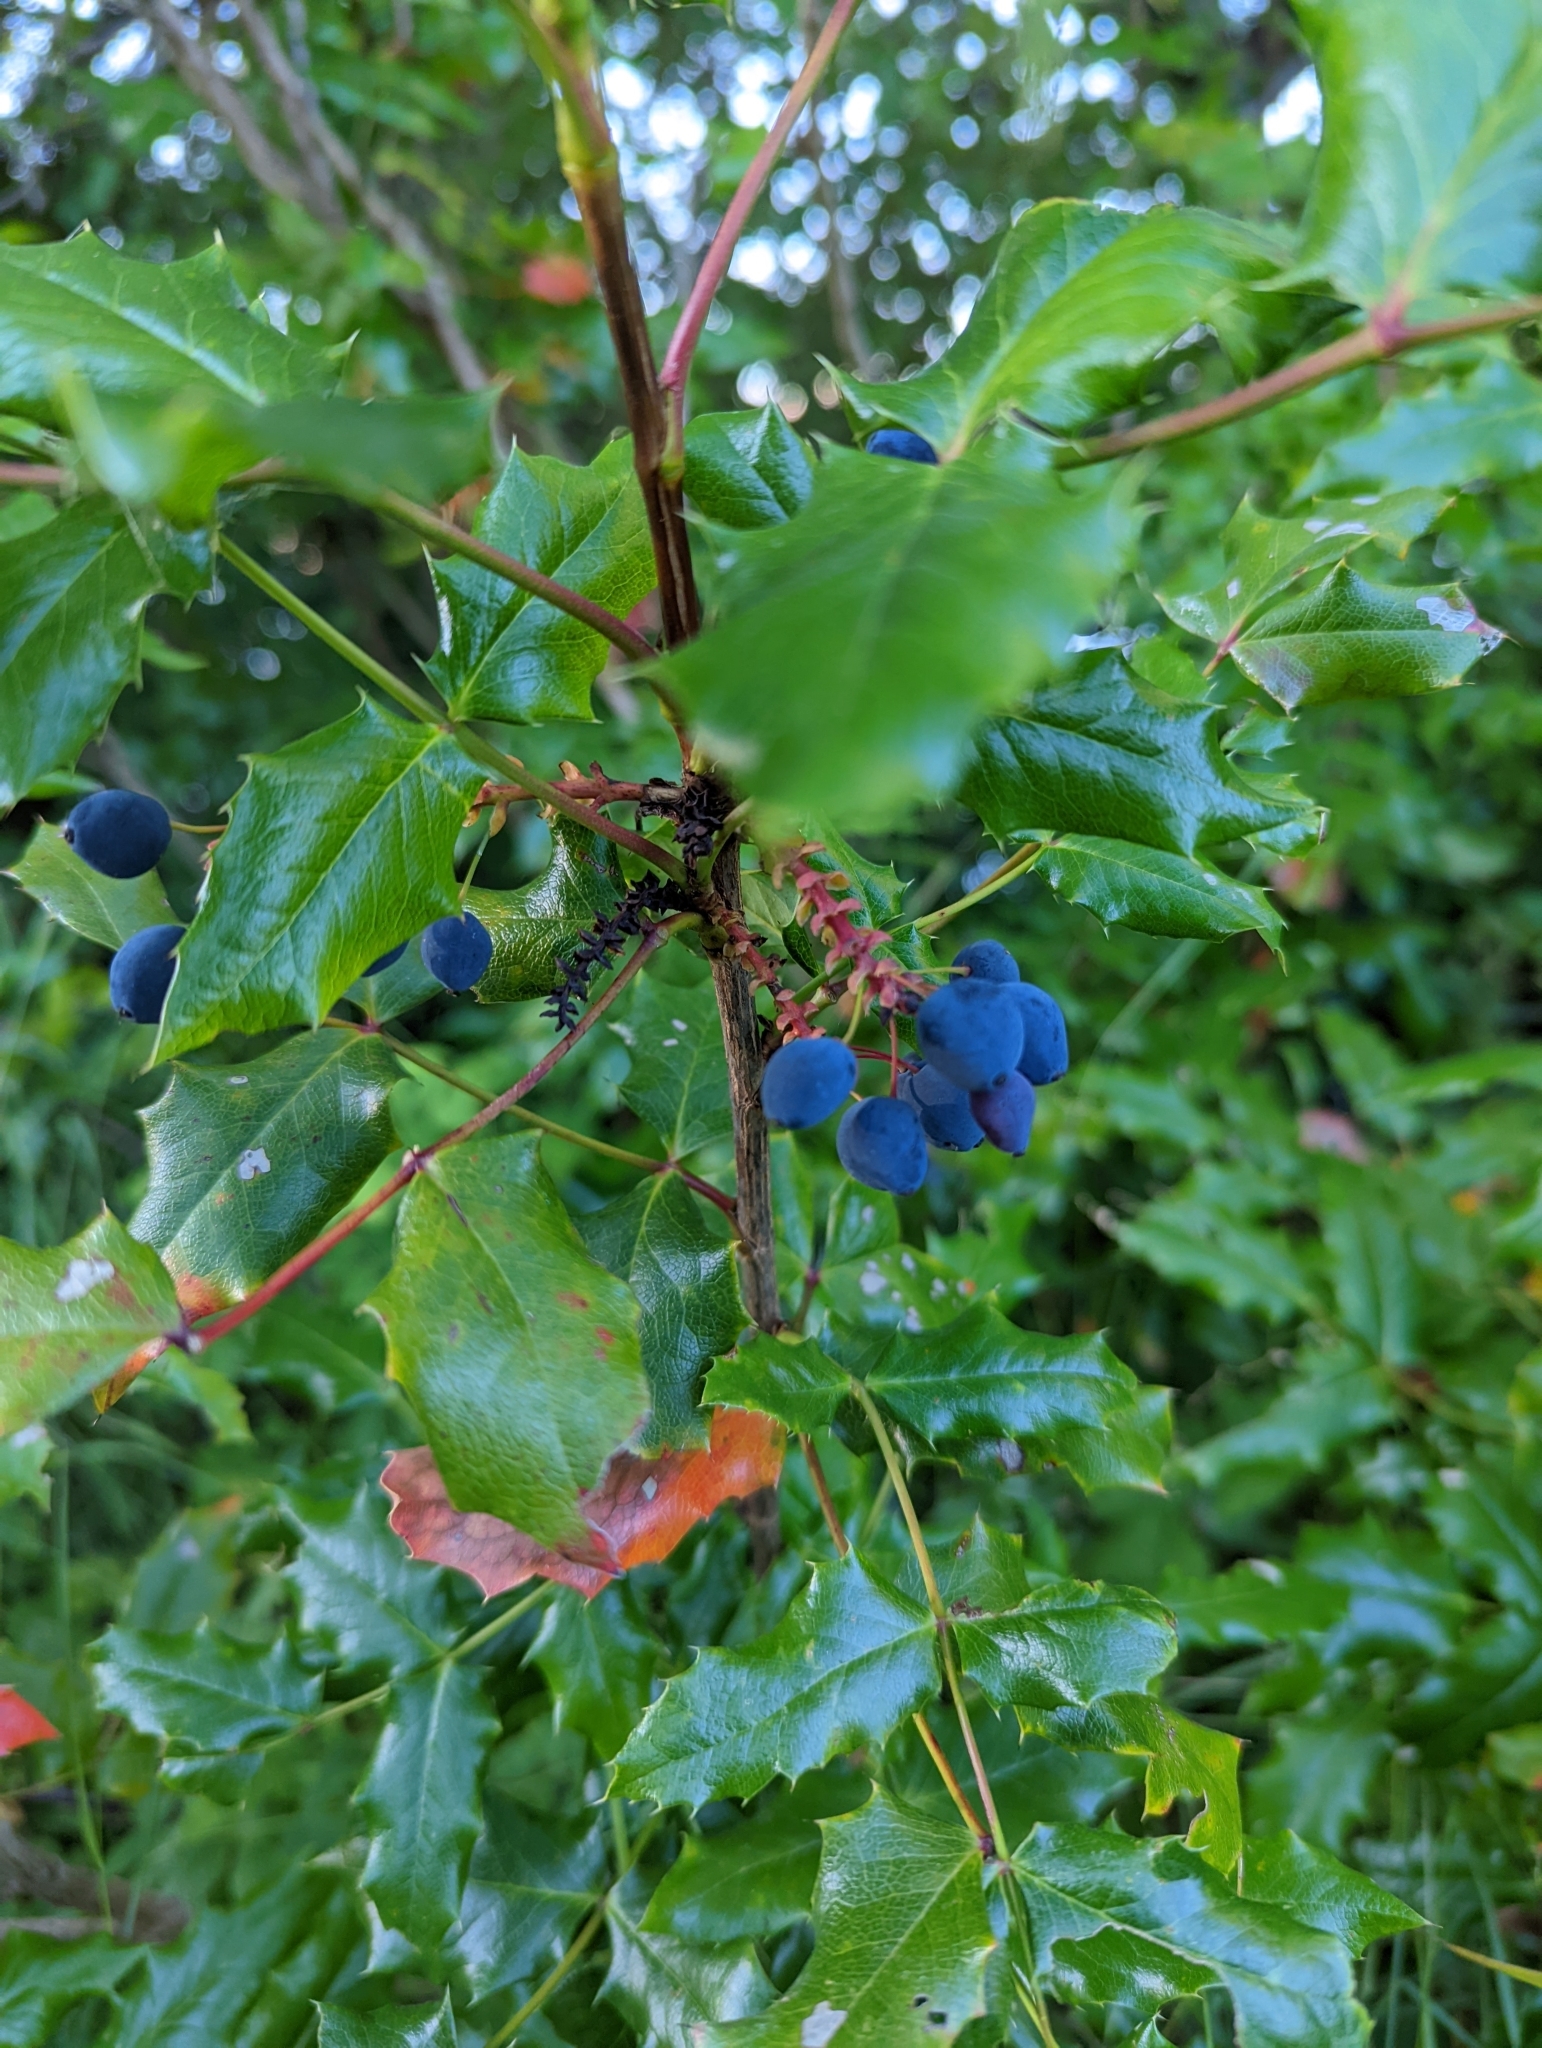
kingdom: Plantae
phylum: Tracheophyta
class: Magnoliopsida
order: Ranunculales
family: Berberidaceae
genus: Mahonia
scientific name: Mahonia aquifolium
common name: Oregon-grape
